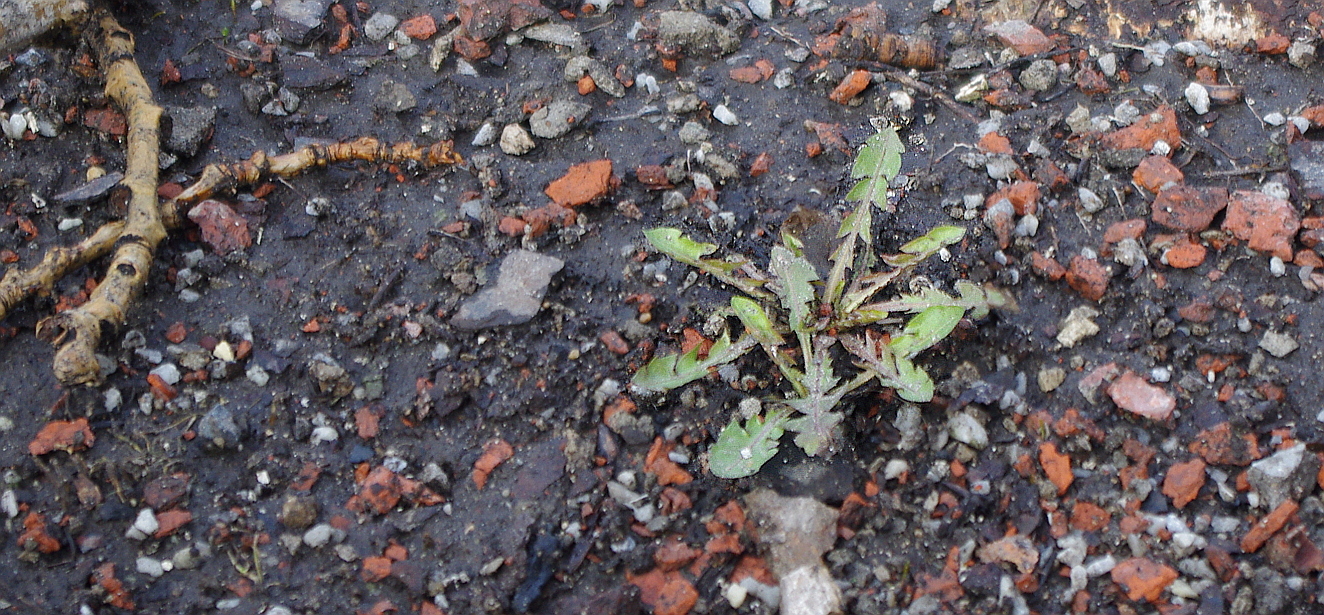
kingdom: Plantae
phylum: Tracheophyta
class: Magnoliopsida
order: Asterales
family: Asteraceae
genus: Taraxacum
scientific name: Taraxacum officinale
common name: Common dandelion
